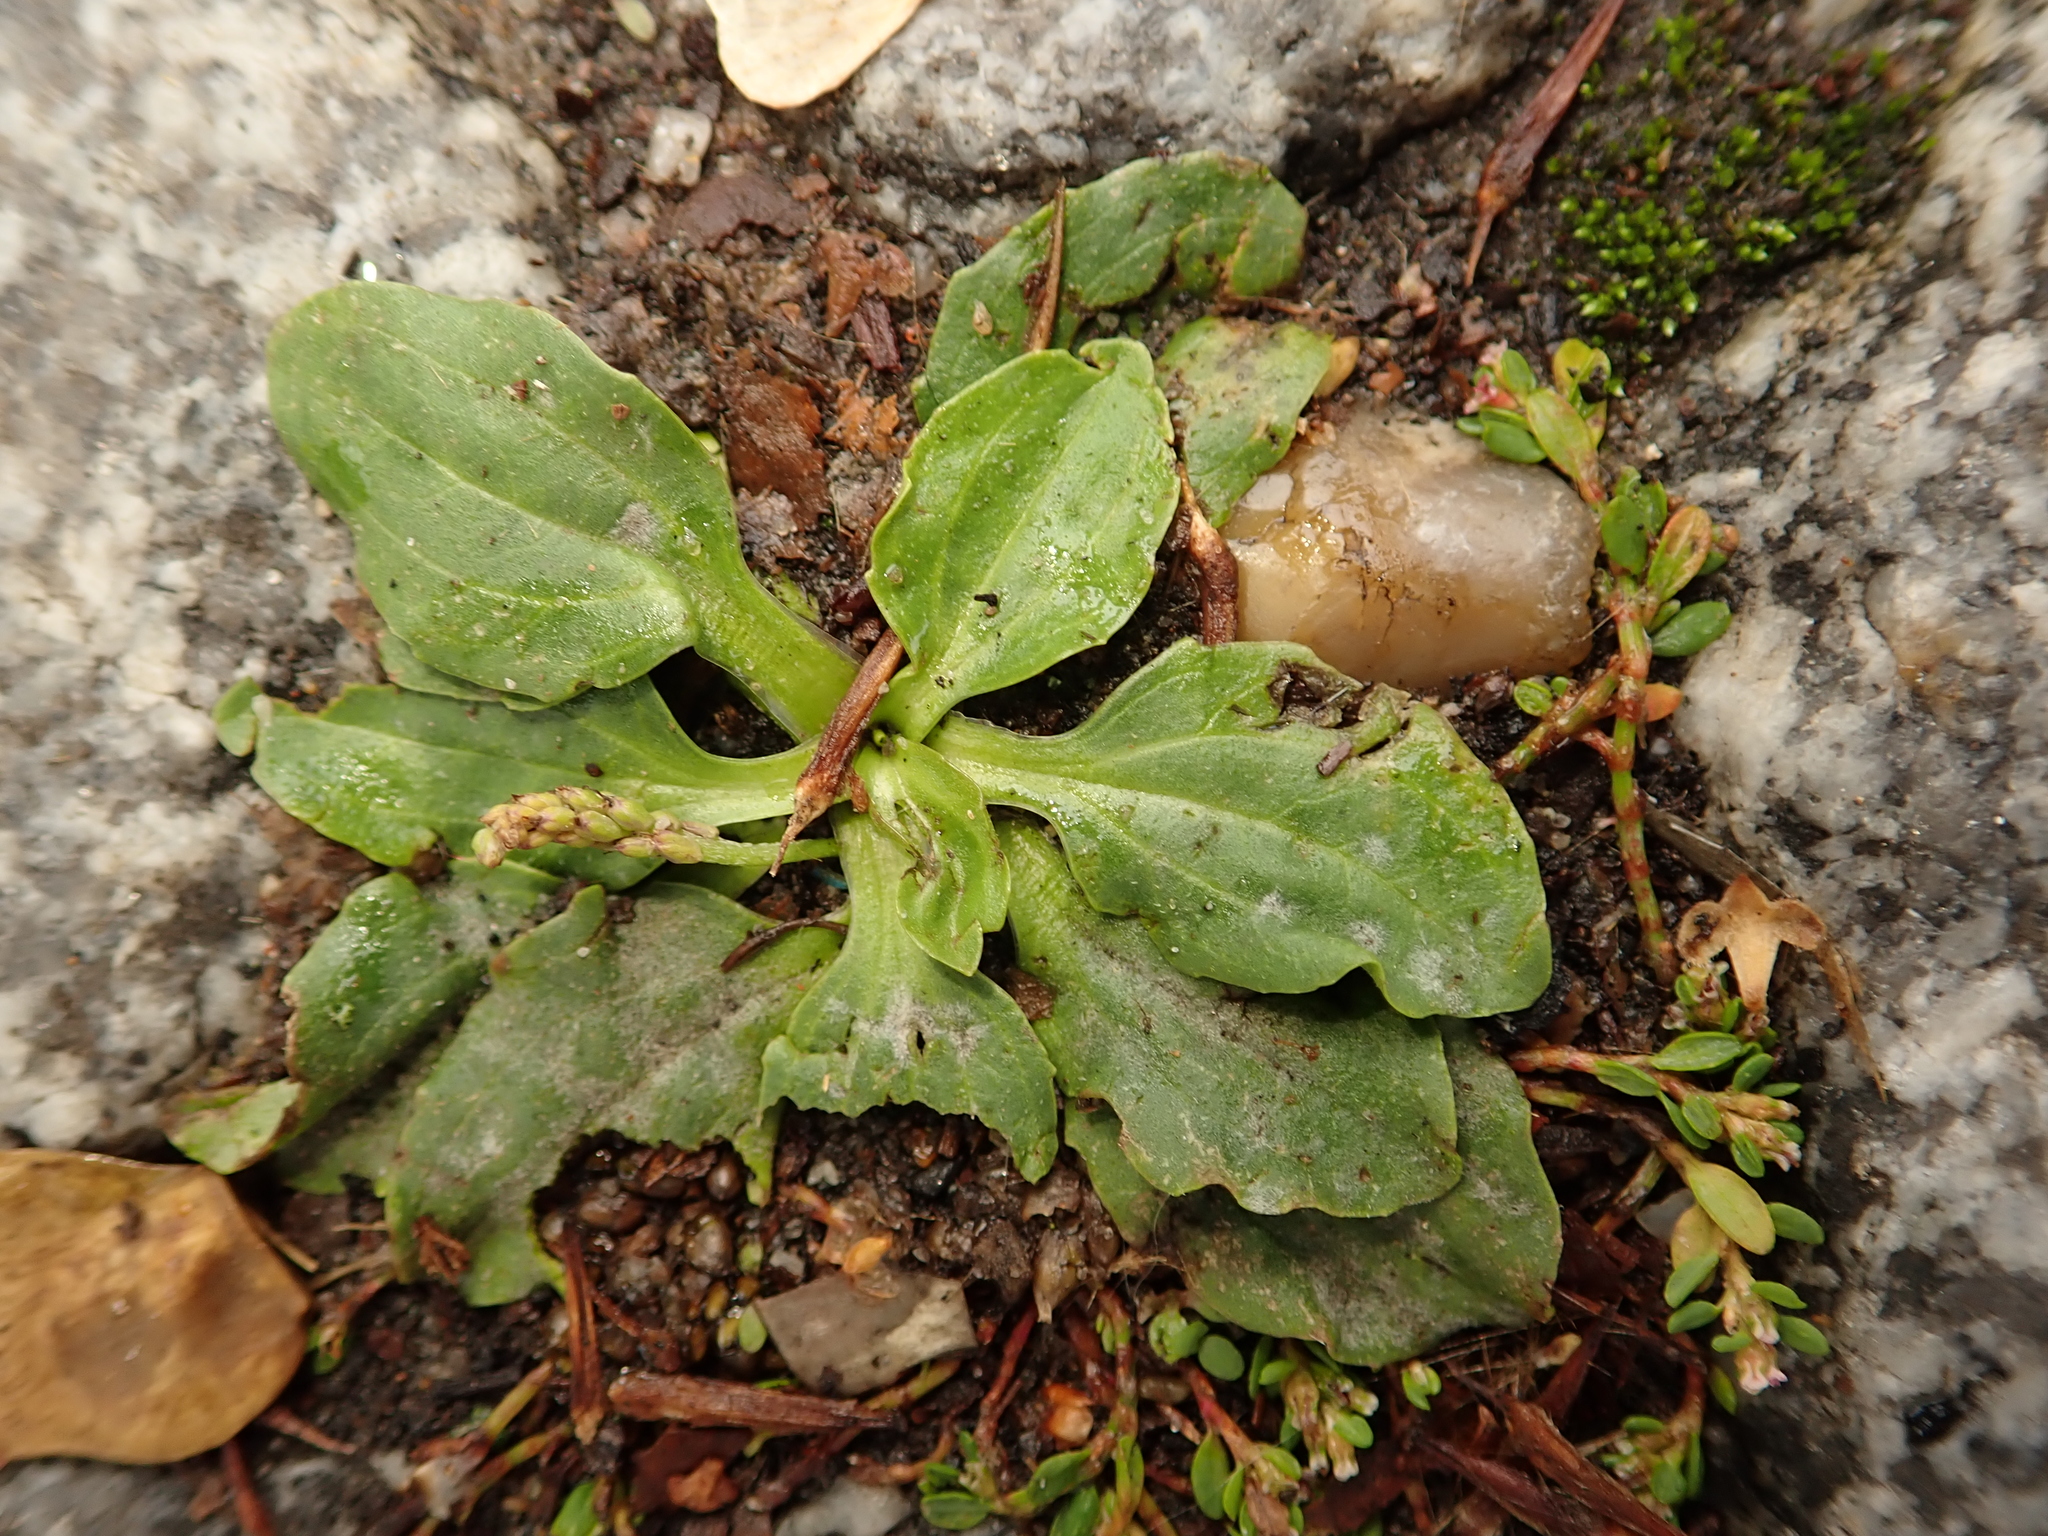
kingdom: Plantae
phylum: Tracheophyta
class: Magnoliopsida
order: Lamiales
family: Plantaginaceae
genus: Plantago
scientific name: Plantago major
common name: Common plantain
